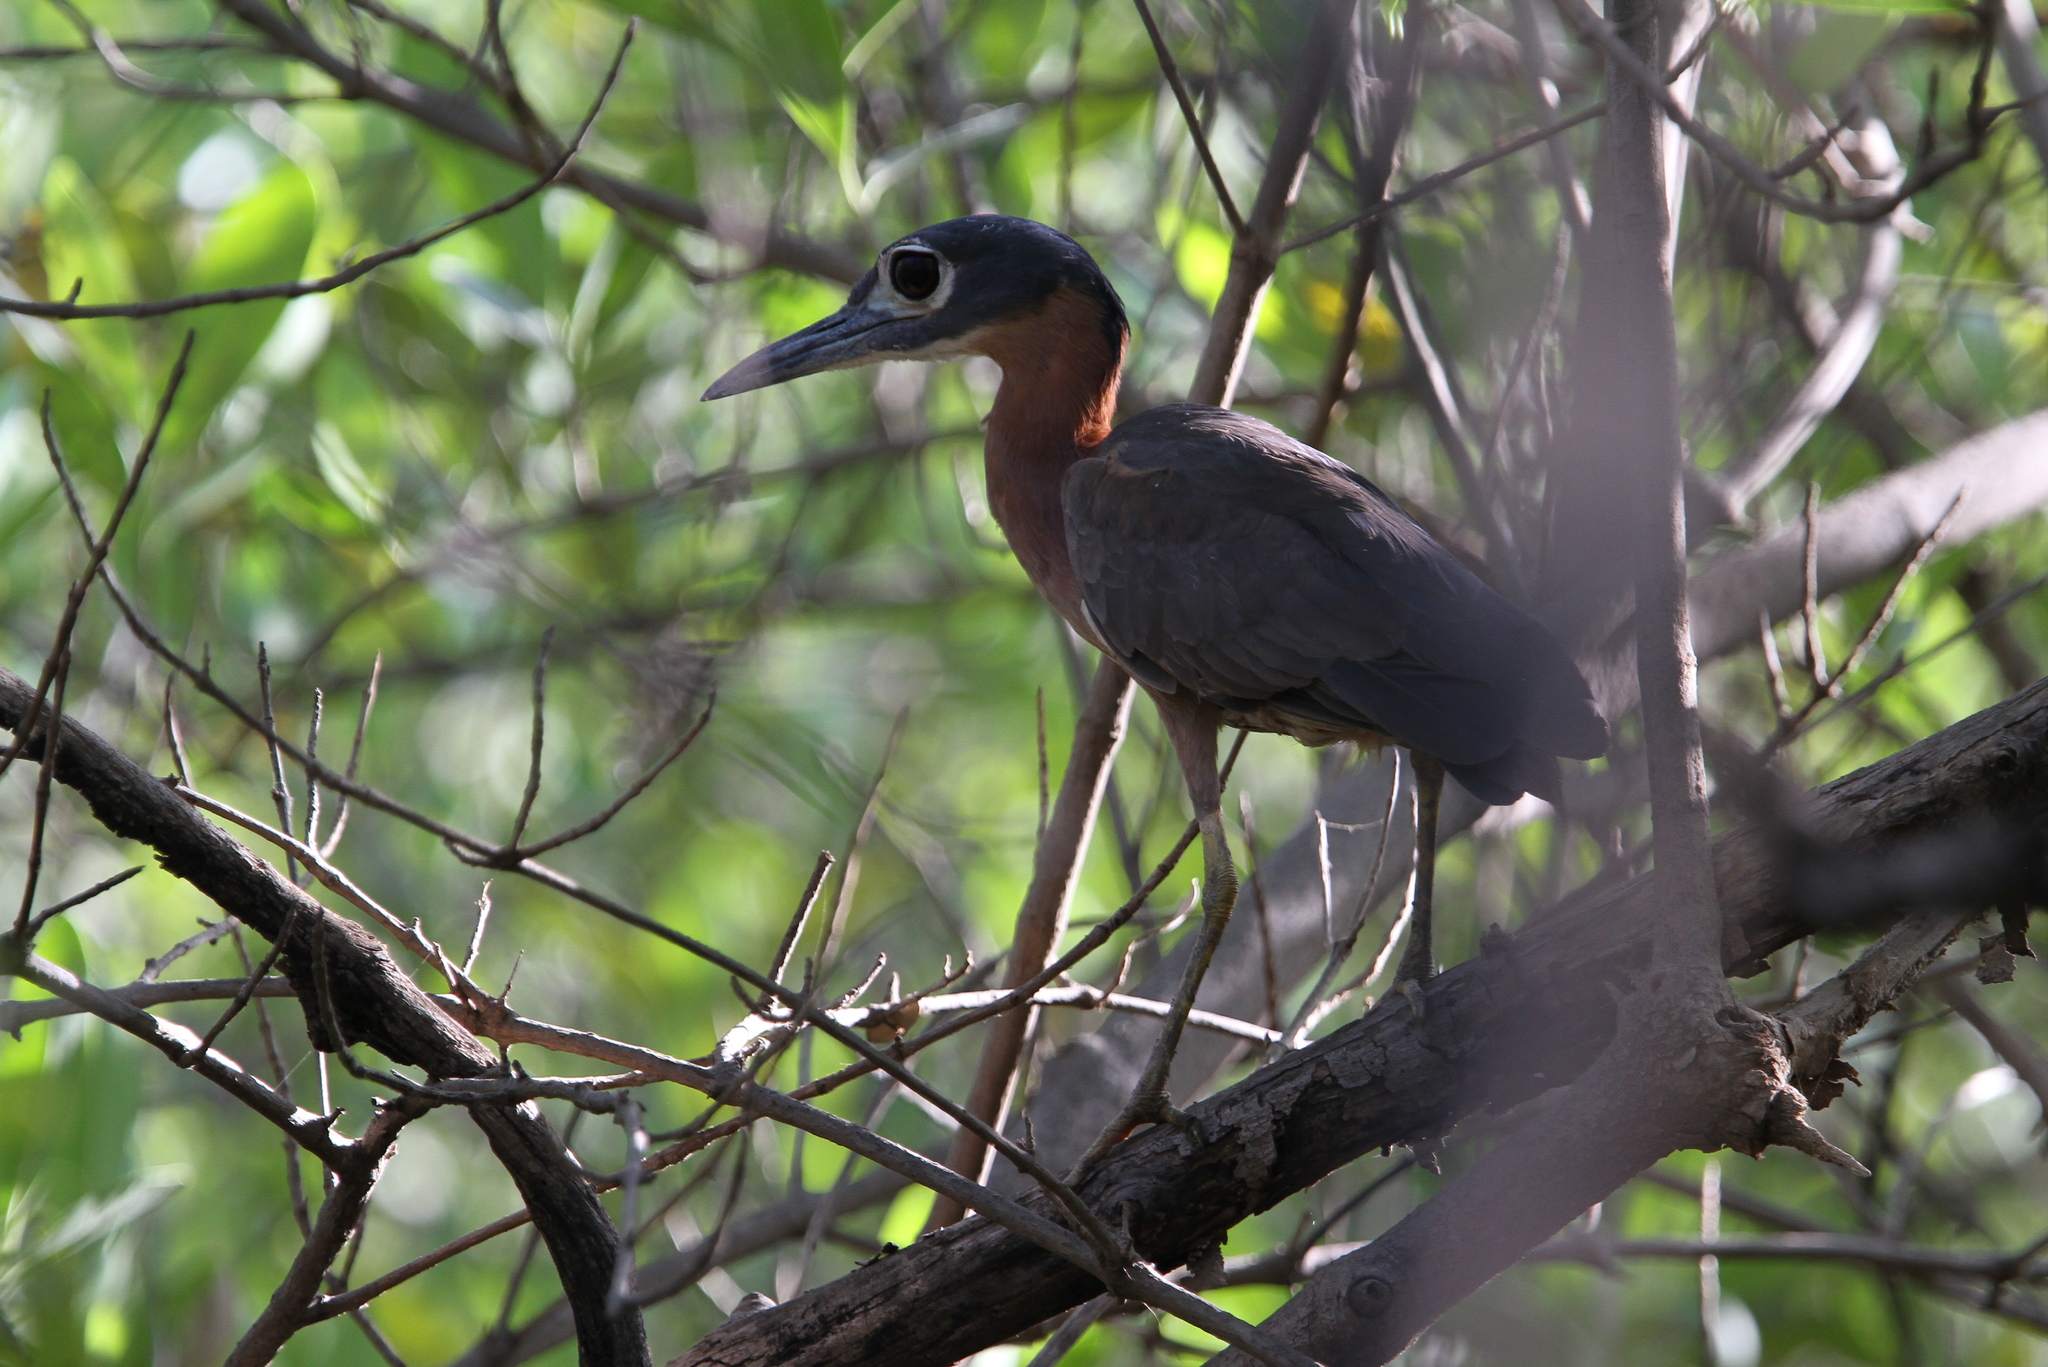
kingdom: Animalia
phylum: Chordata
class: Aves
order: Pelecaniformes
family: Ardeidae
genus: Gorsachius
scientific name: Gorsachius leuconotus
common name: White-backed night heron
